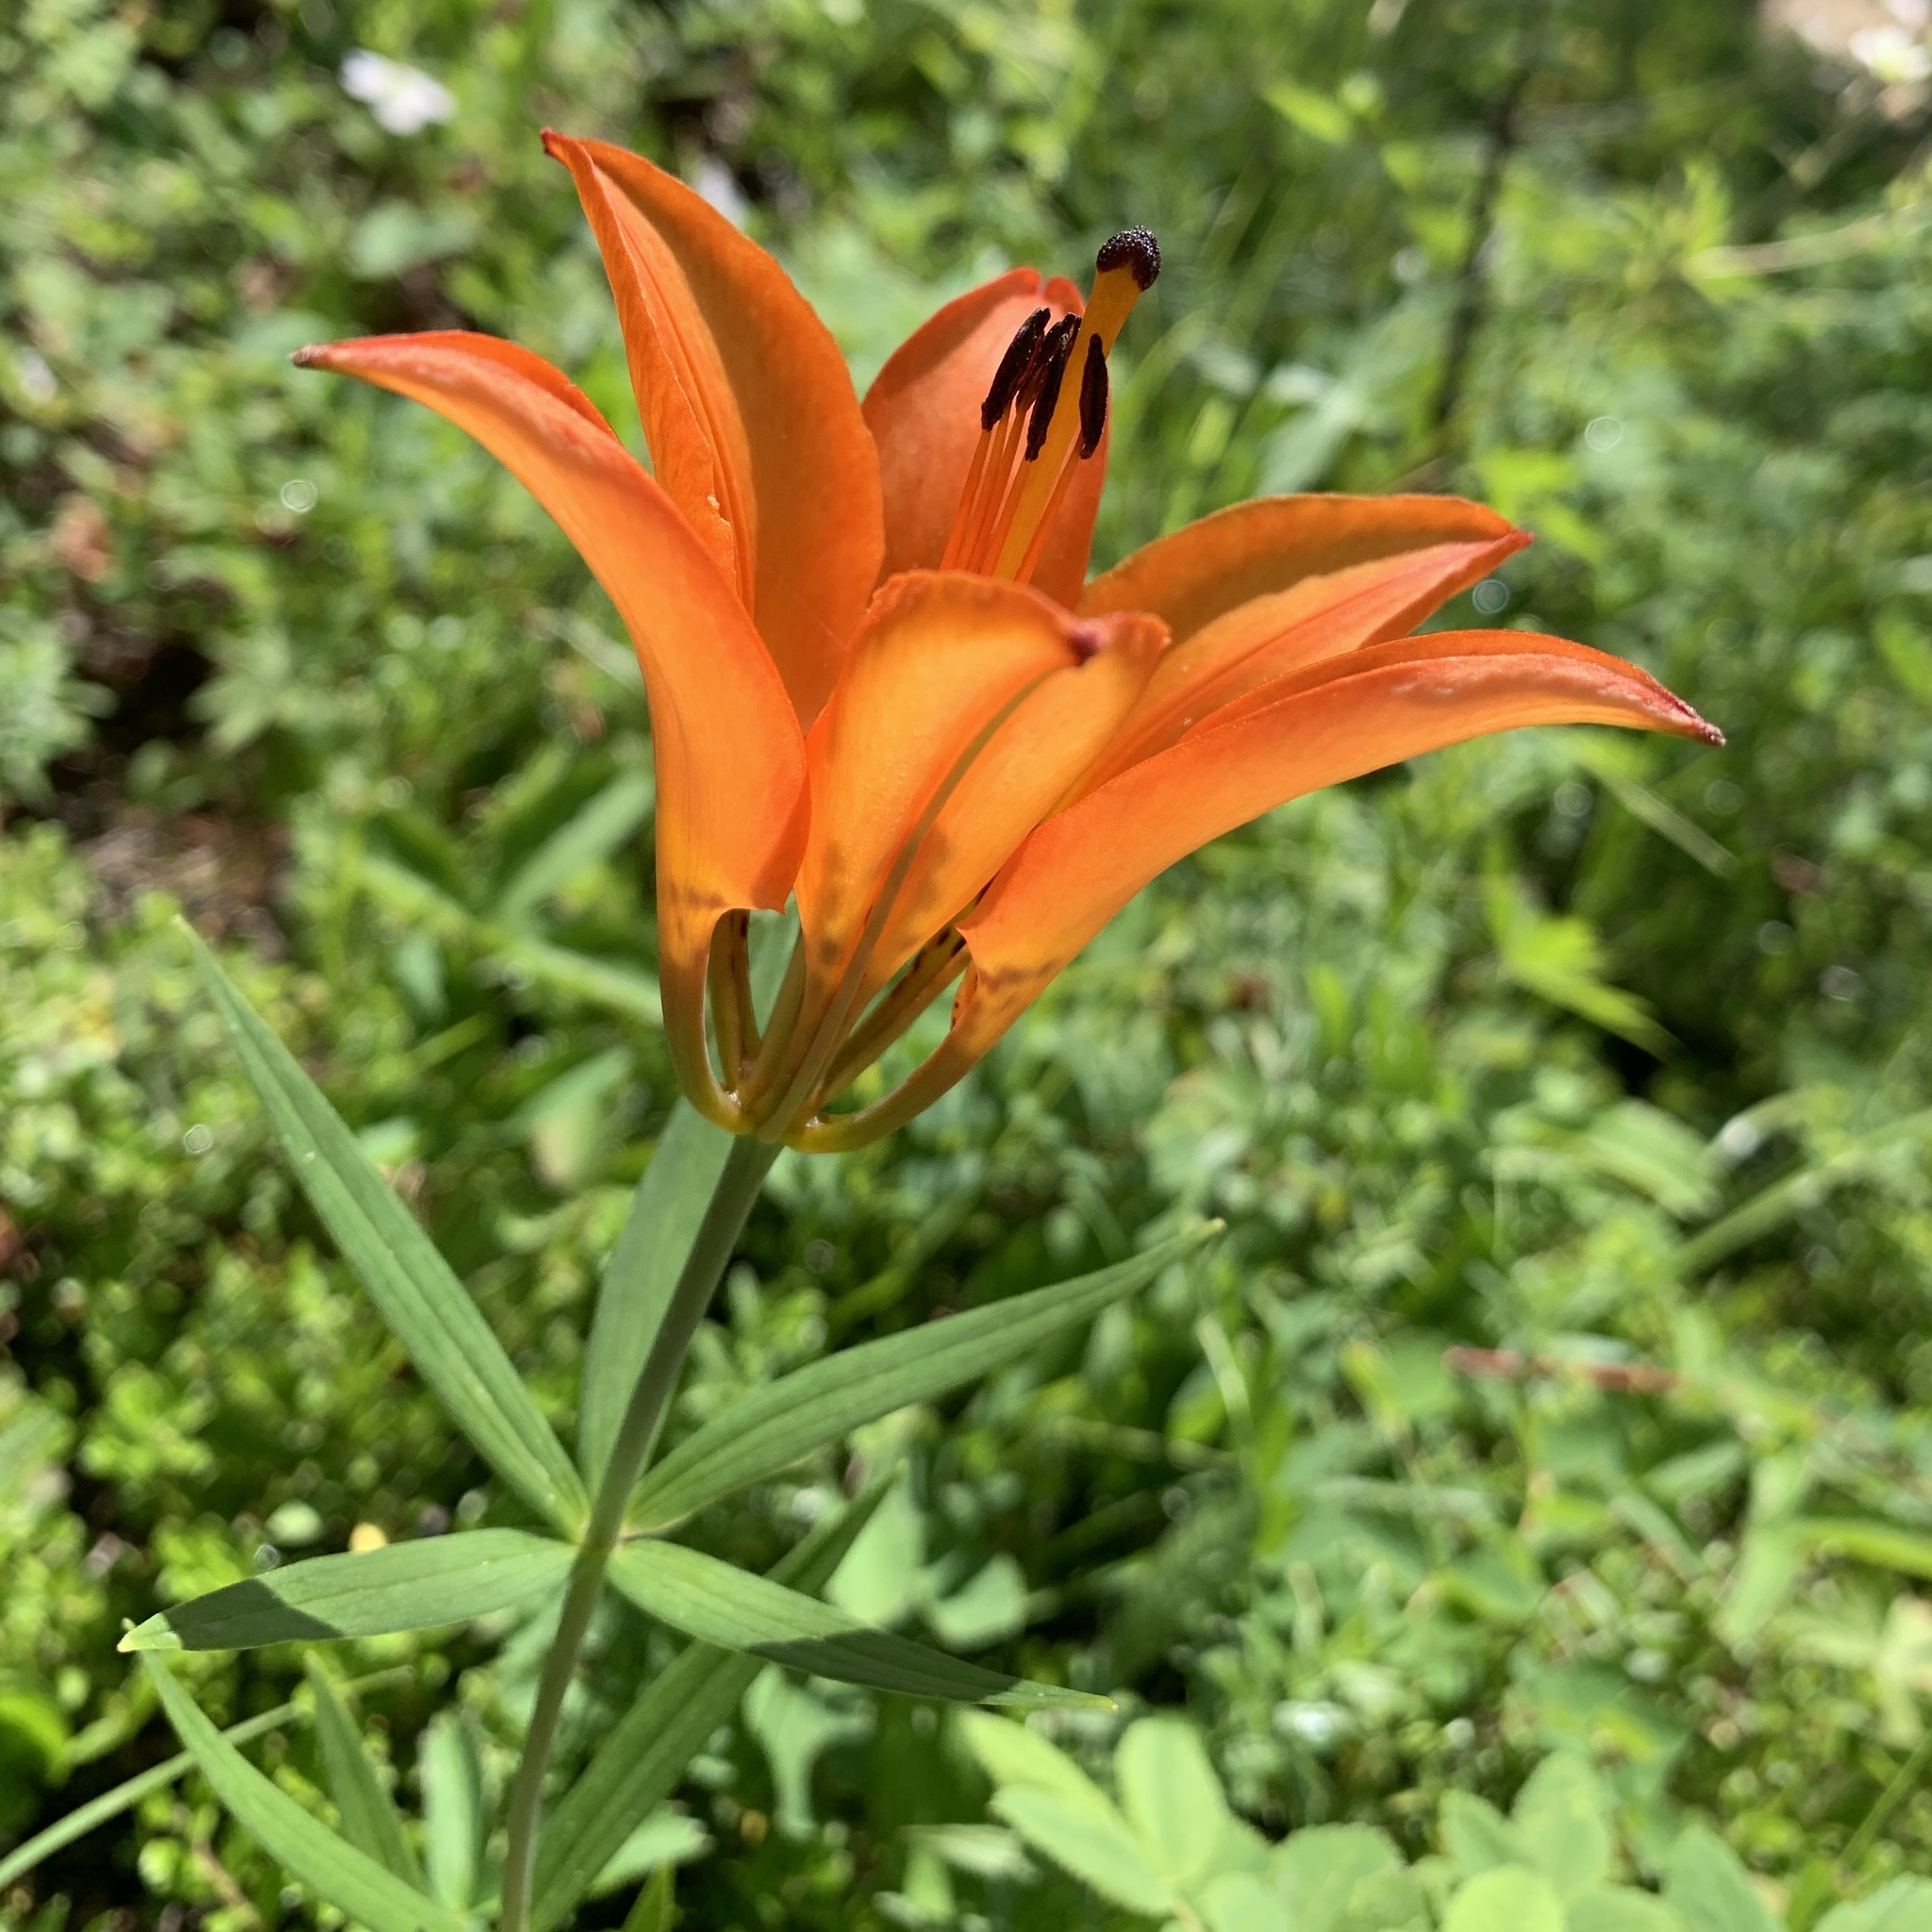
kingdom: Plantae
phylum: Tracheophyta
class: Liliopsida
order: Liliales
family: Liliaceae
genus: Lilium
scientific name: Lilium philadelphicum
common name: Red lily
